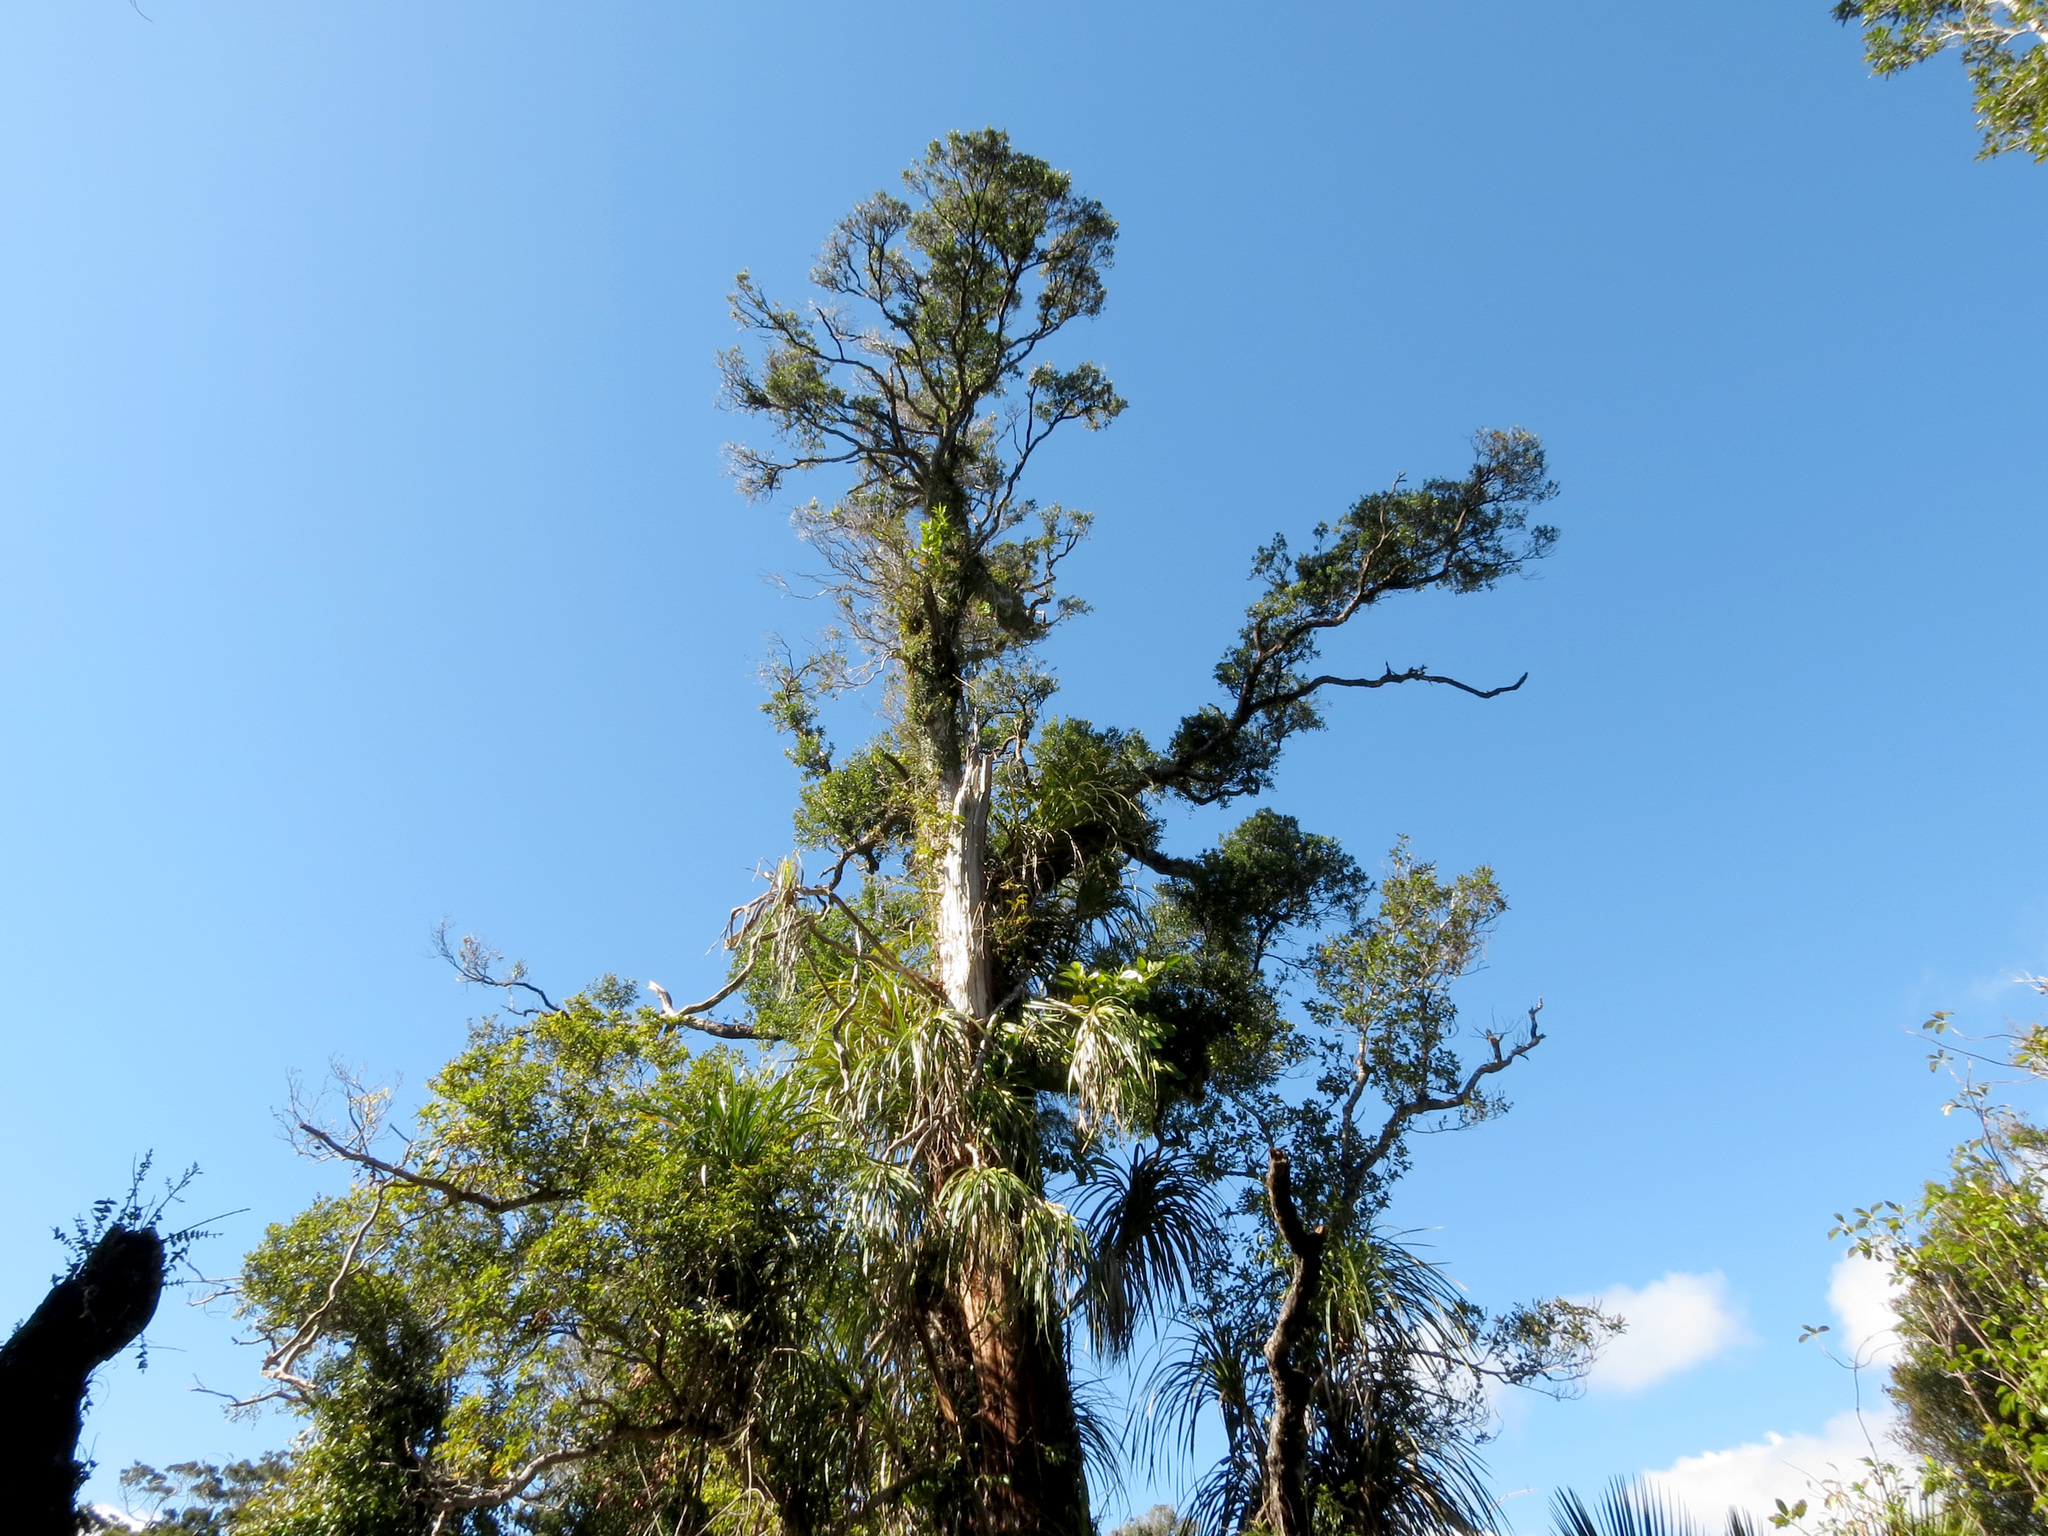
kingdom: Plantae
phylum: Tracheophyta
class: Liliopsida
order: Pandanales
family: Pandanaceae
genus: Freycinetia
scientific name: Freycinetia banksii
